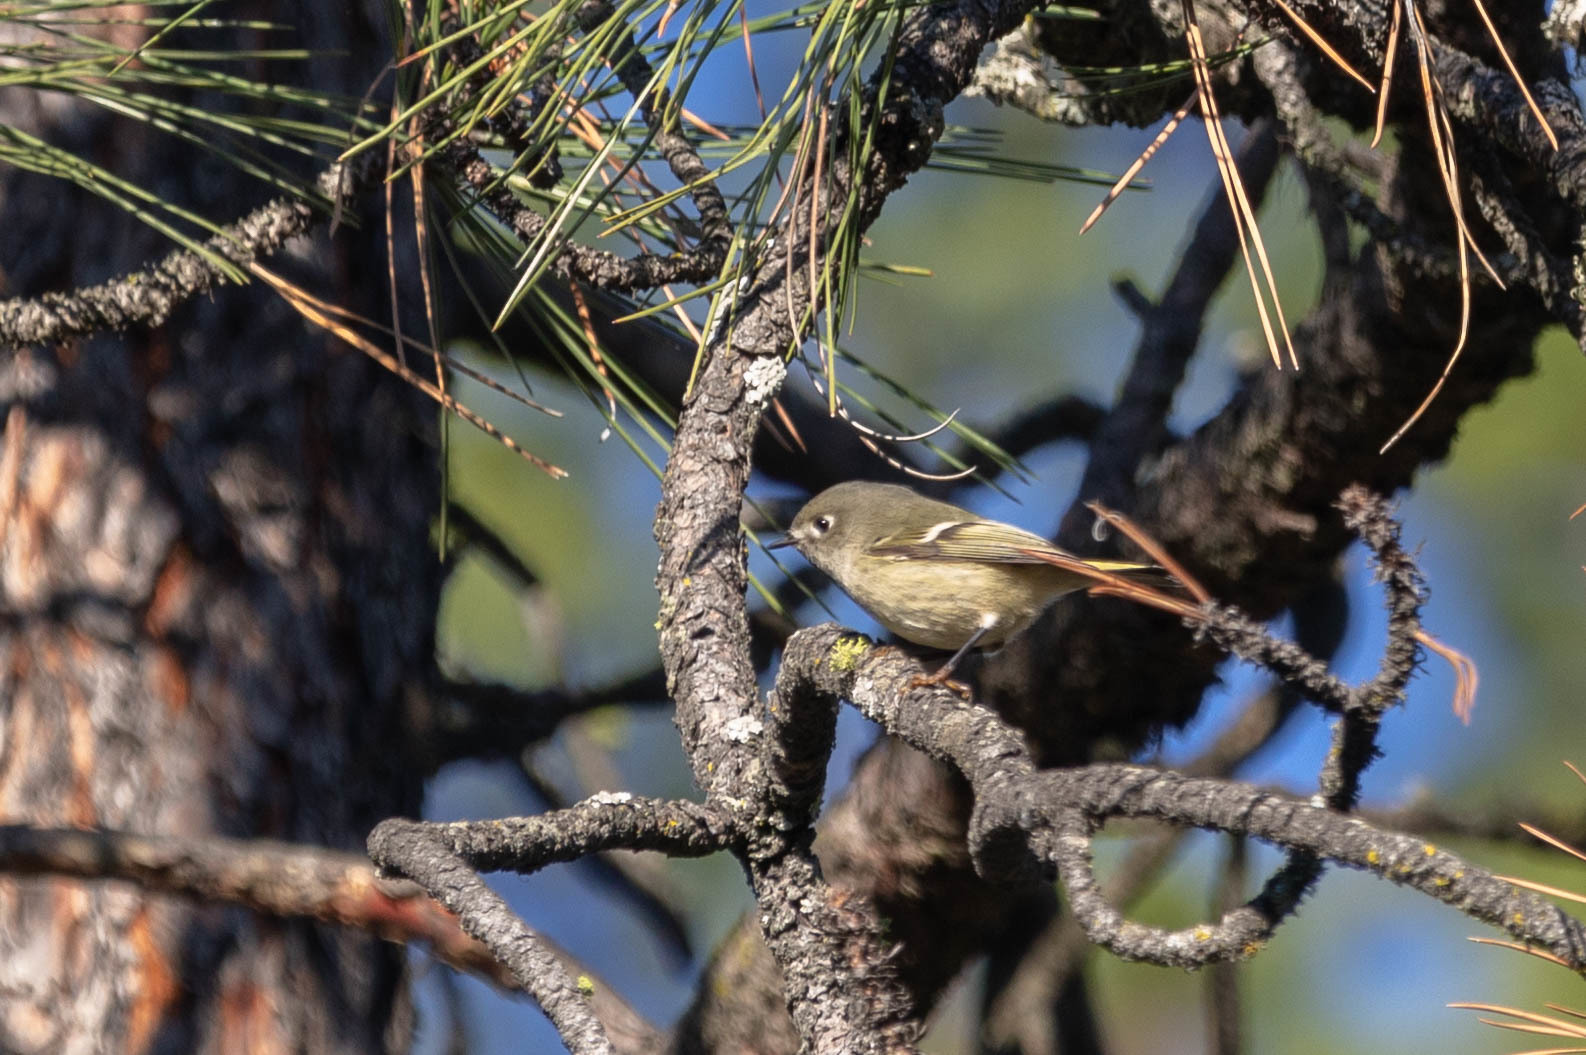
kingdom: Animalia
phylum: Chordata
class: Aves
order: Passeriformes
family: Regulidae
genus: Regulus
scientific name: Regulus calendula
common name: Ruby-crowned kinglet
